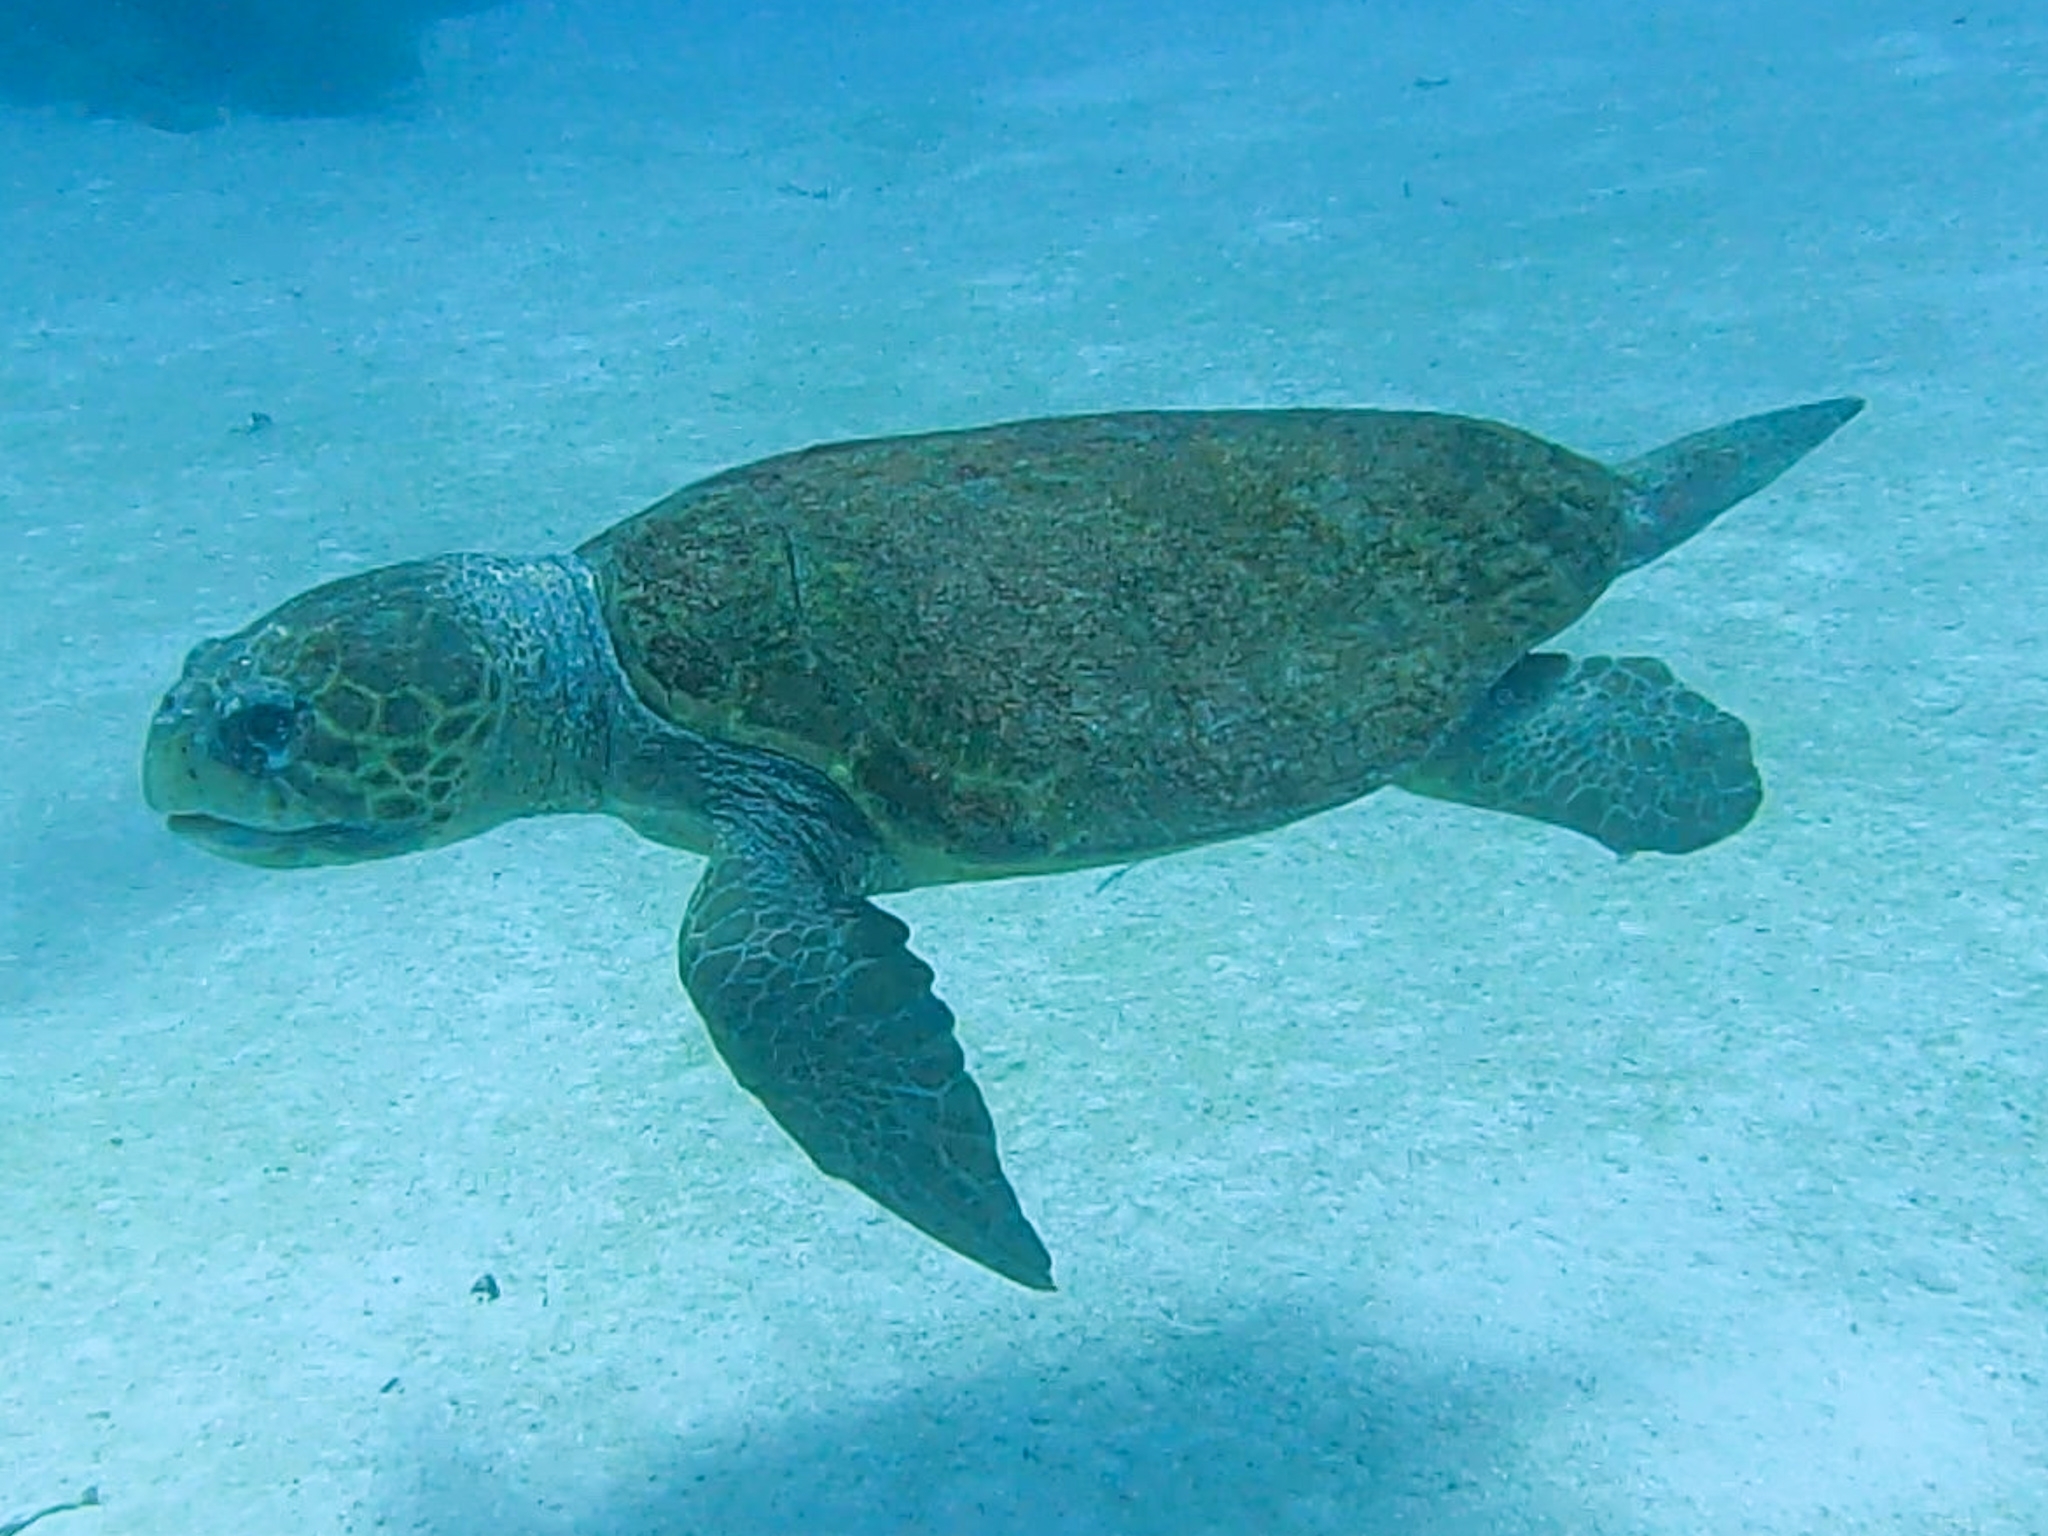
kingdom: Animalia
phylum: Chordata
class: Testudines
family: Cheloniidae
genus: Caretta
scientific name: Caretta caretta
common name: Loggerhead sea turtle
